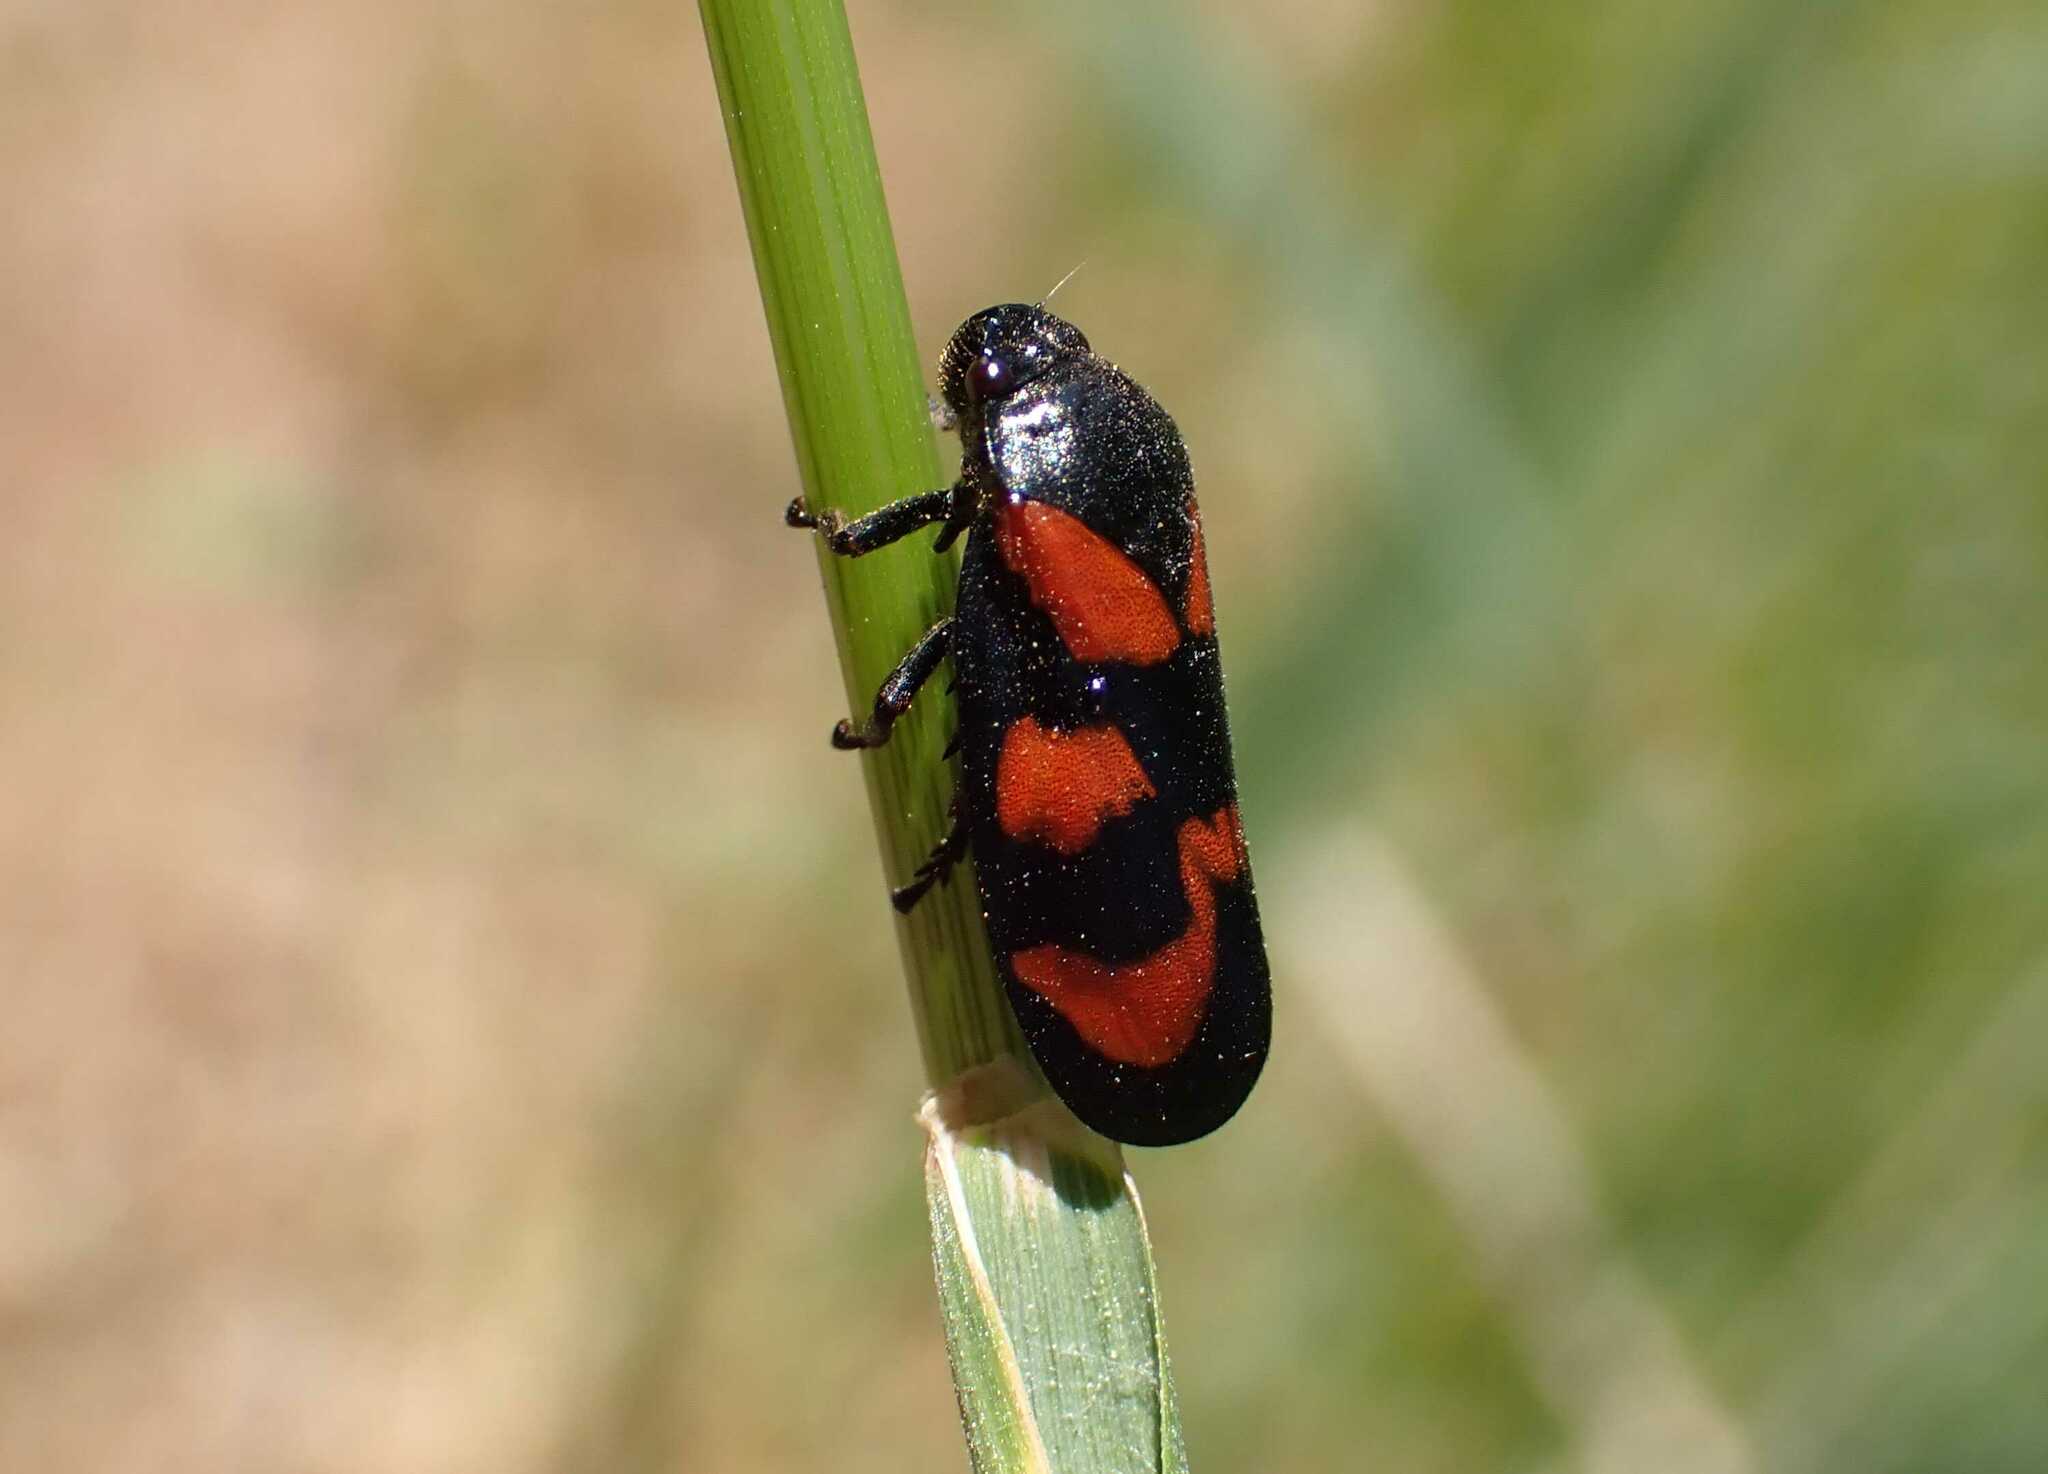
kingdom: Animalia
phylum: Arthropoda
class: Insecta
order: Hemiptera
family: Cercopidae
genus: Cercopis
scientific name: Cercopis vulnerata
